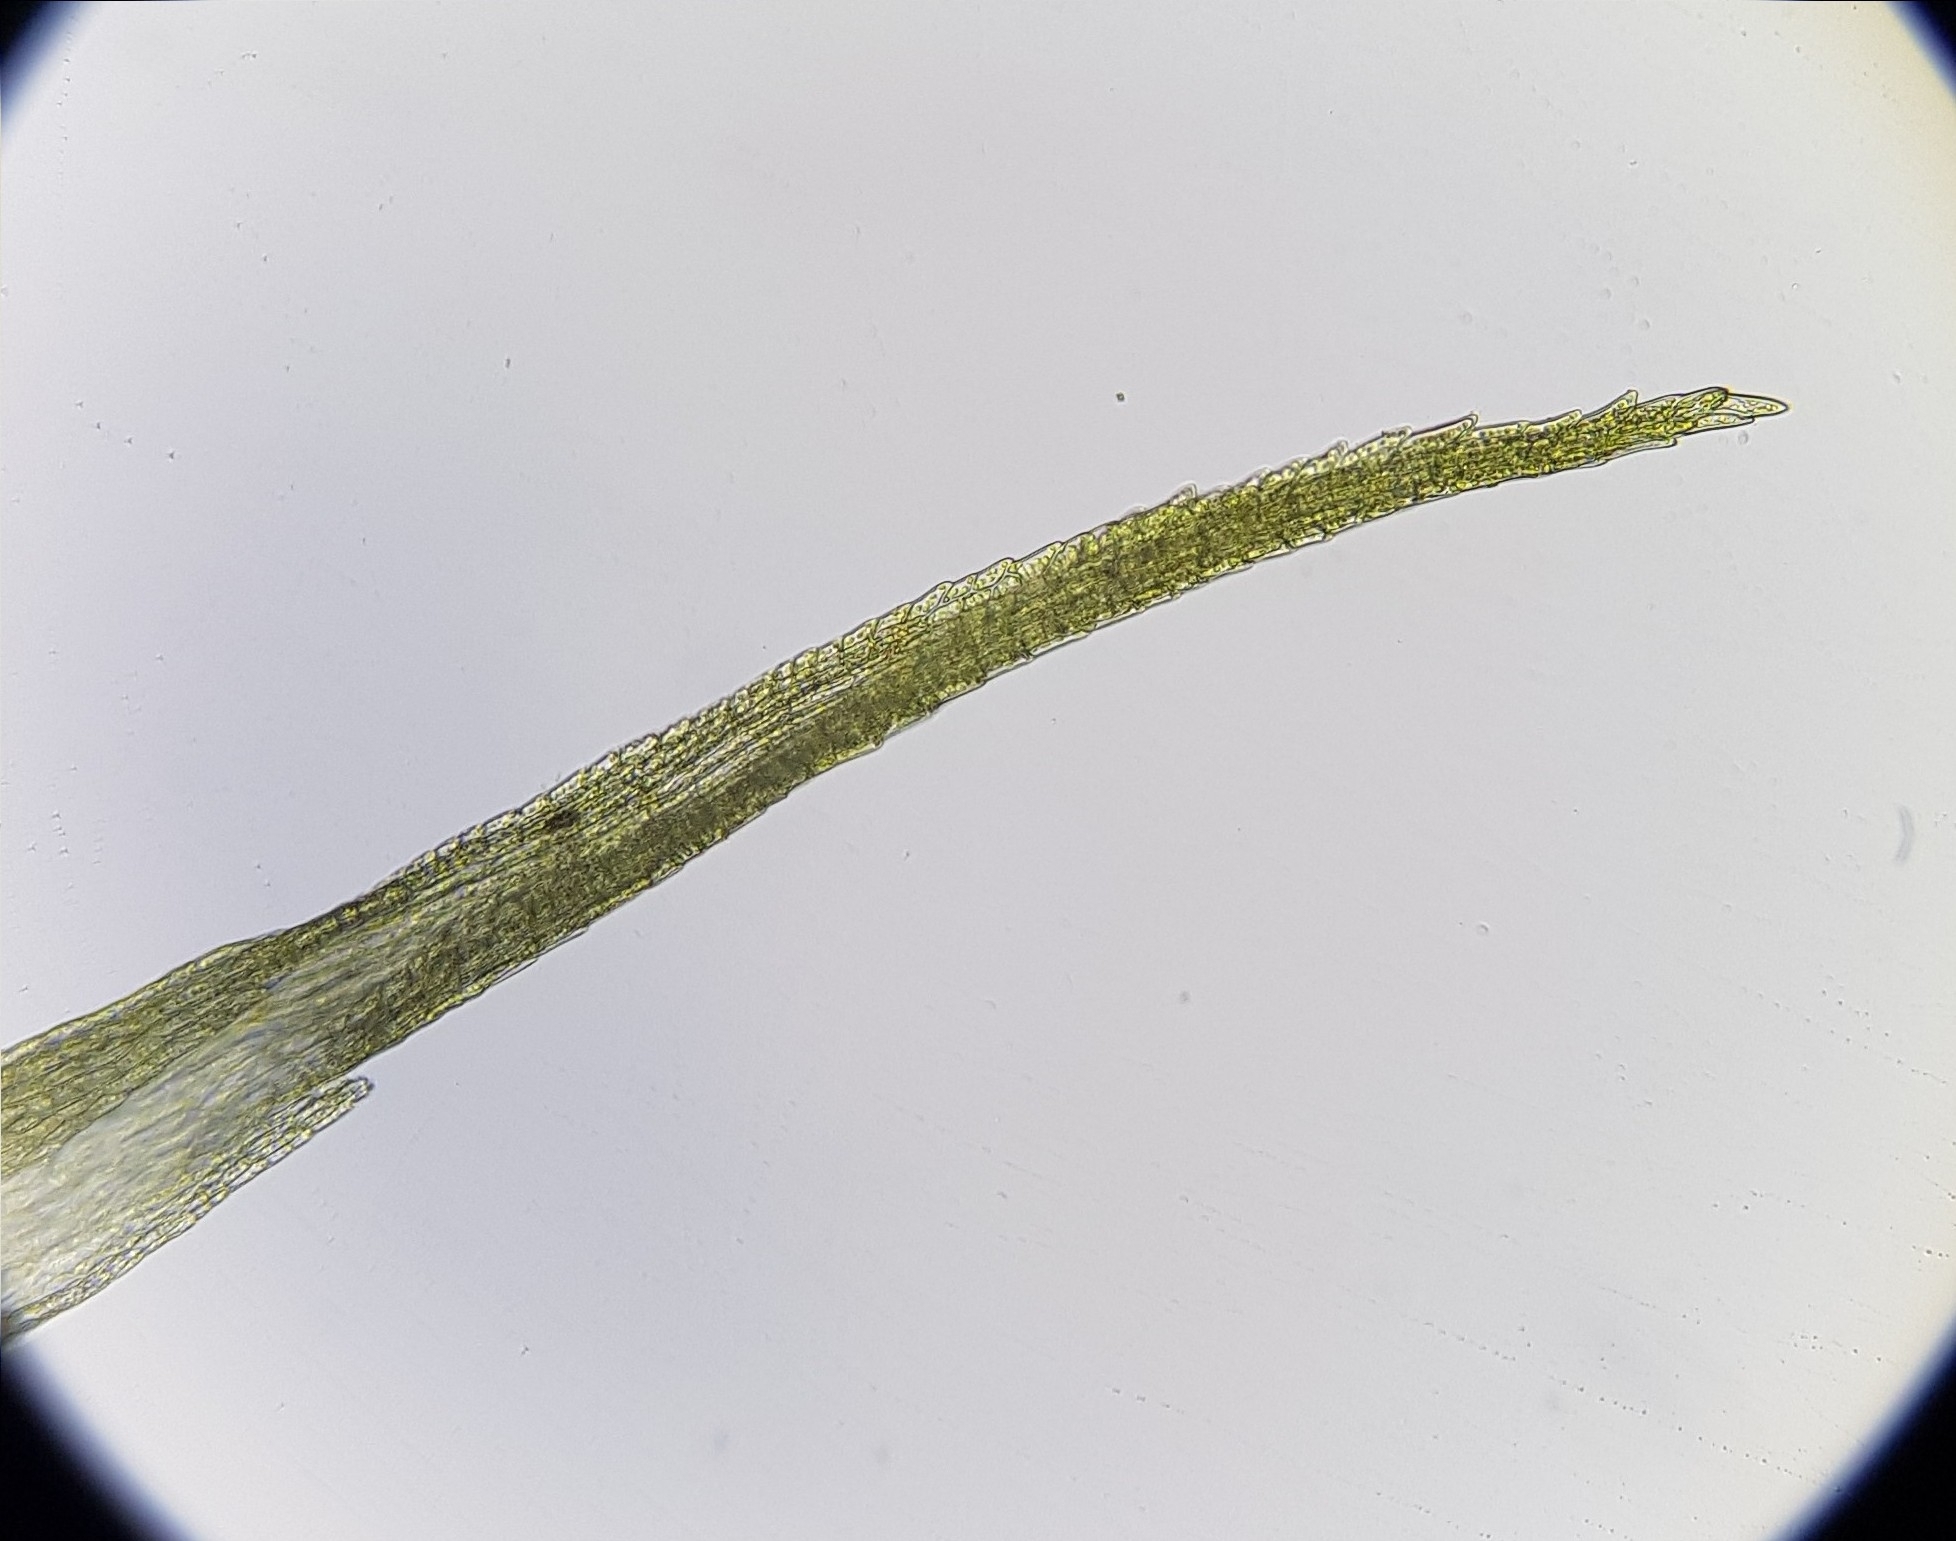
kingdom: Plantae
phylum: Bryophyta
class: Bryopsida
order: Dicranales
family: Leucobryaceae
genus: Campylopus
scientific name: Campylopus pyriformis
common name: Dwarf swan-neck moss
